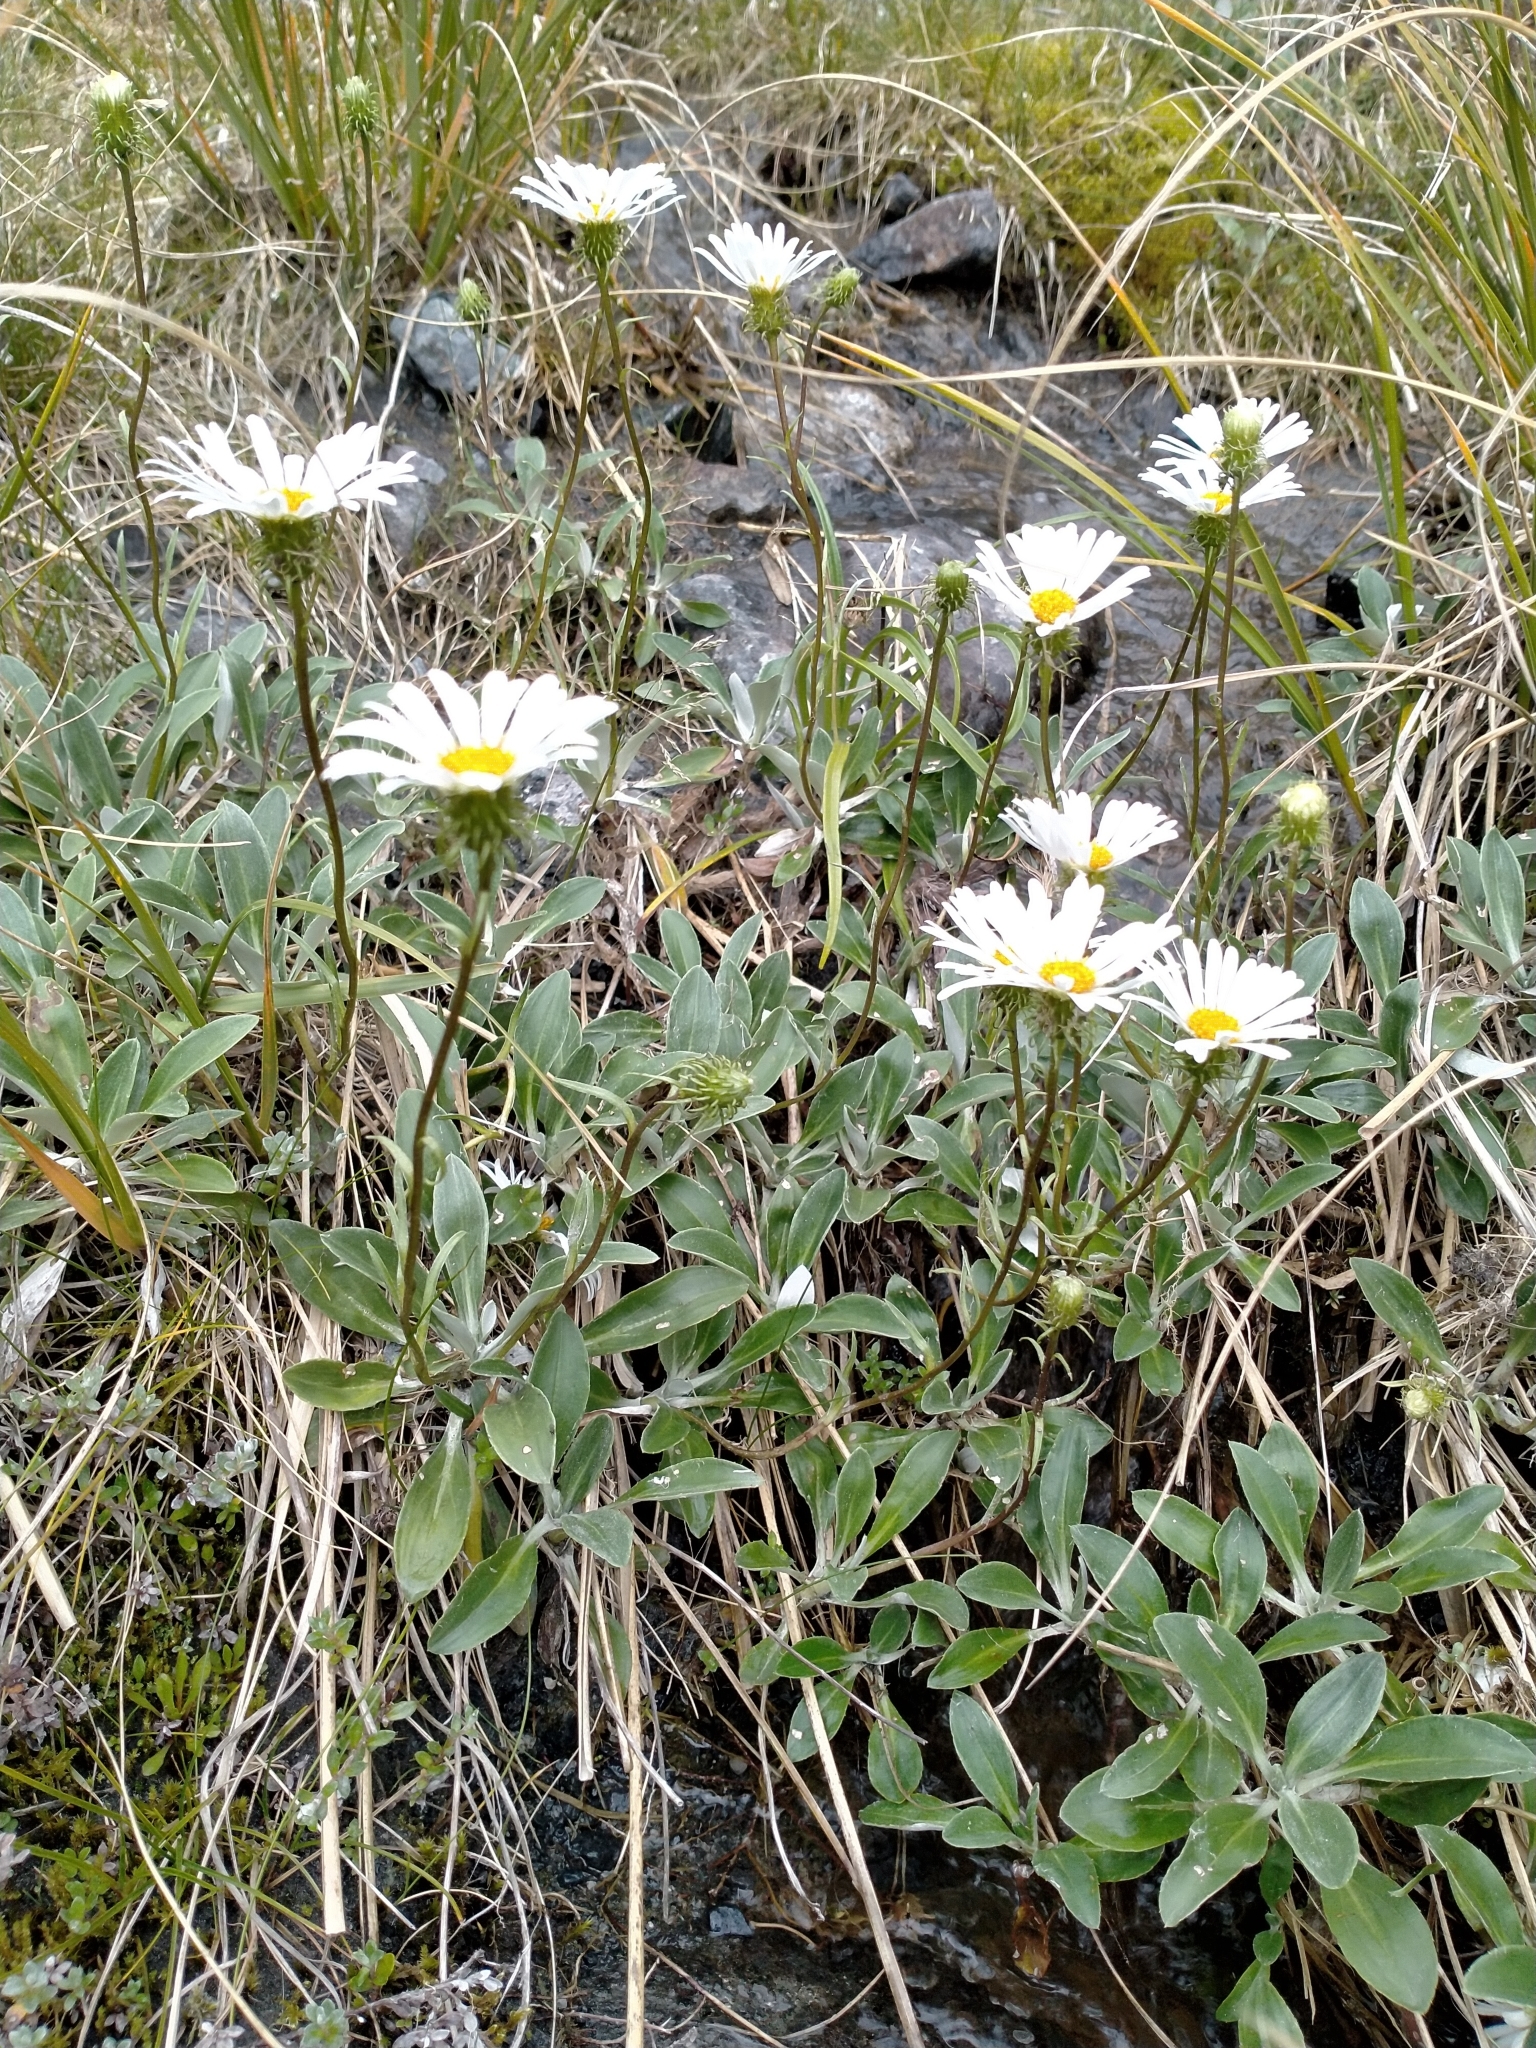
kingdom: Plantae
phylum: Tracheophyta
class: Magnoliopsida
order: Asterales
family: Asteraceae
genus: Celmisia
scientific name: Celmisia durietzii
